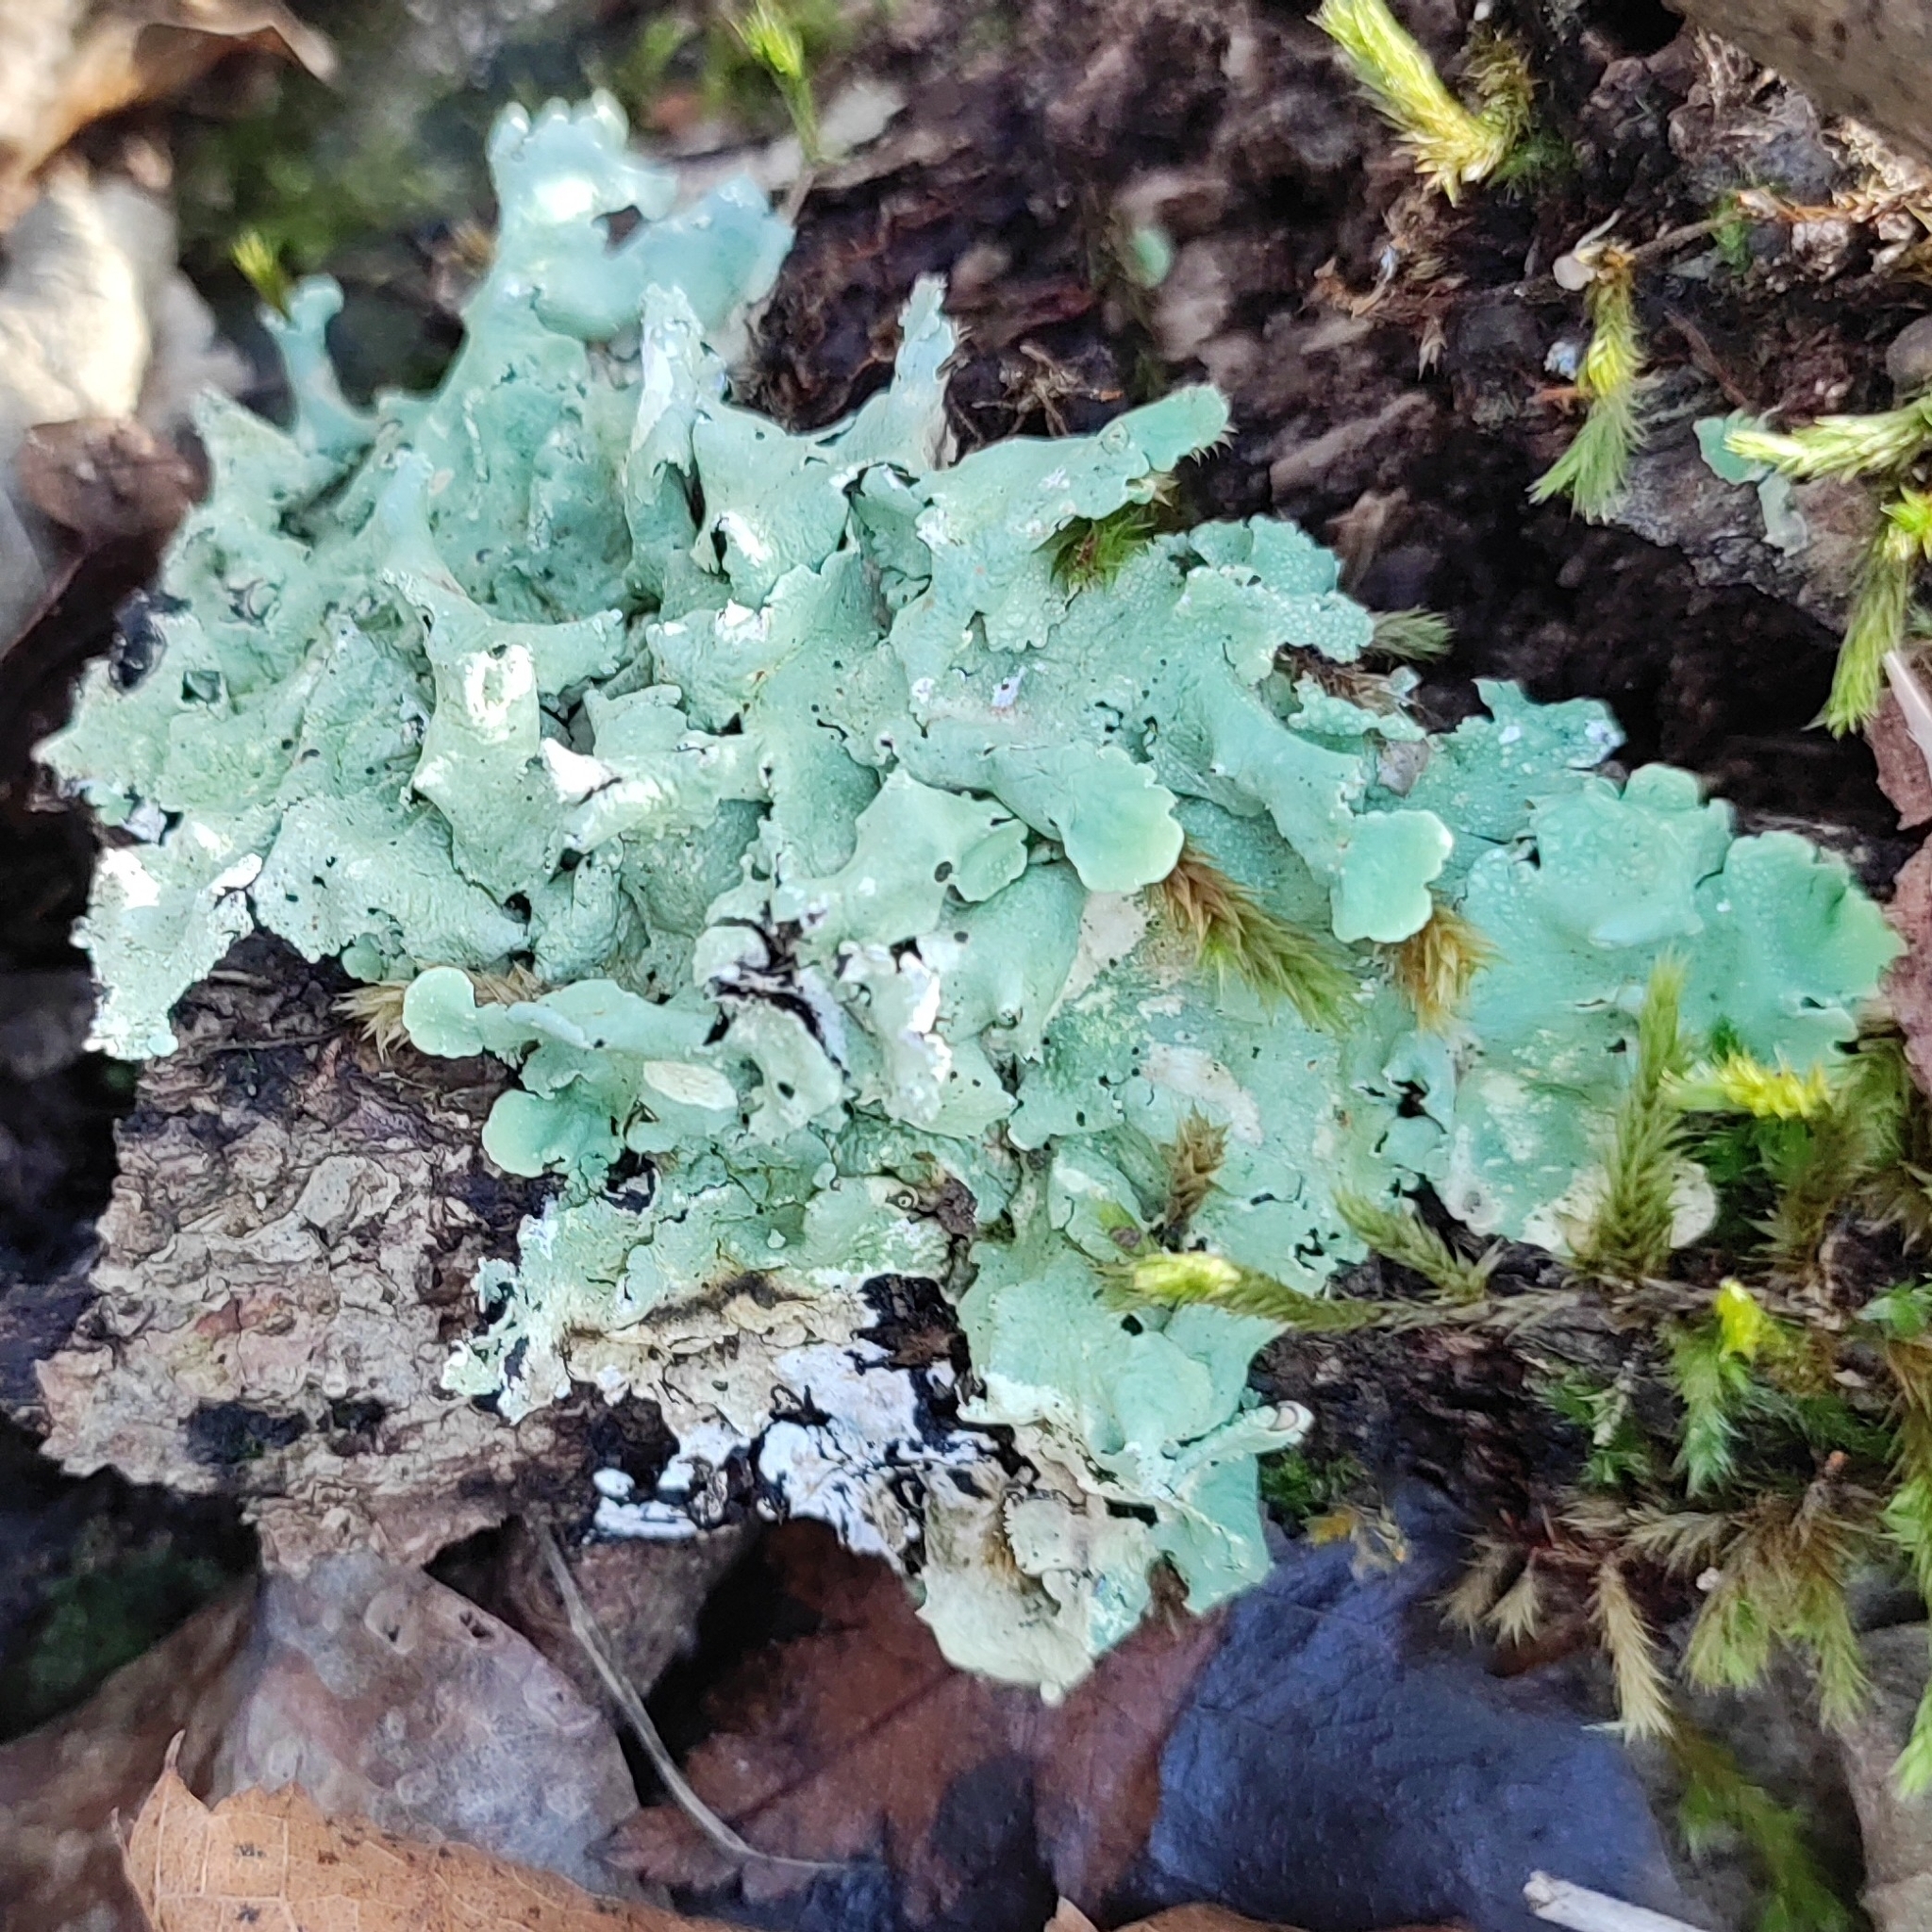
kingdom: Fungi
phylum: Ascomycota
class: Lecanoromycetes
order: Lecanorales
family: Parmeliaceae
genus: Flavoparmelia
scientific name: Flavoparmelia caperata
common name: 40-mile per hour lichen
